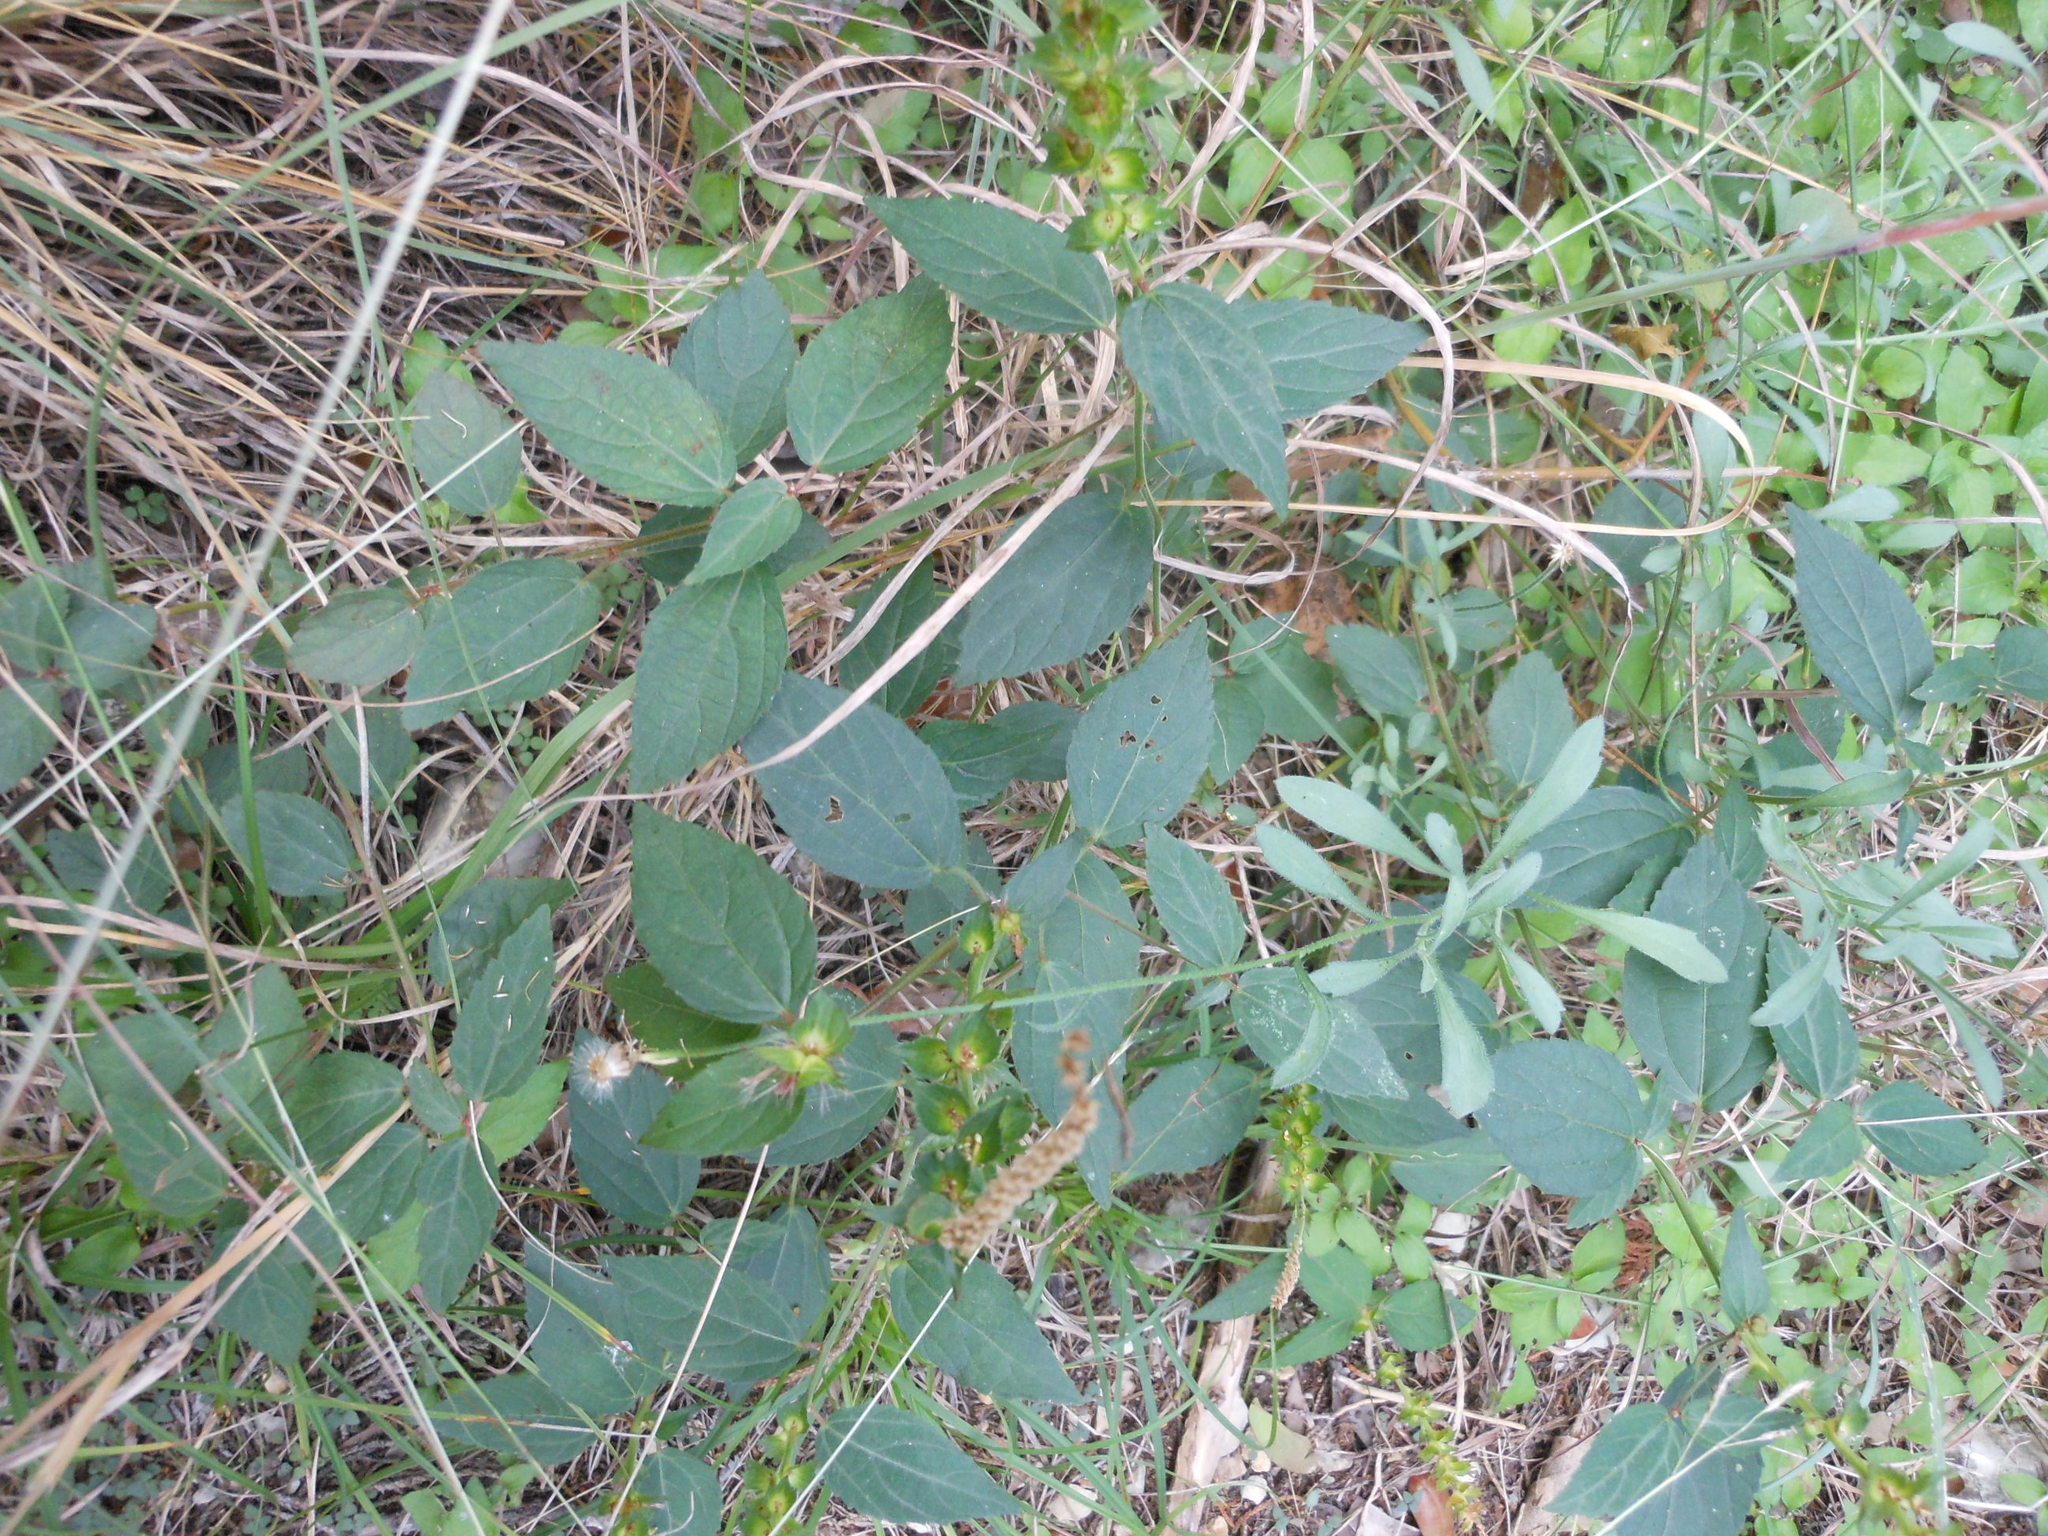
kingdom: Plantae
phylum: Tracheophyta
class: Magnoliopsida
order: Malpighiales
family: Euphorbiaceae
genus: Acalypha
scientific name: Acalypha phleoides
